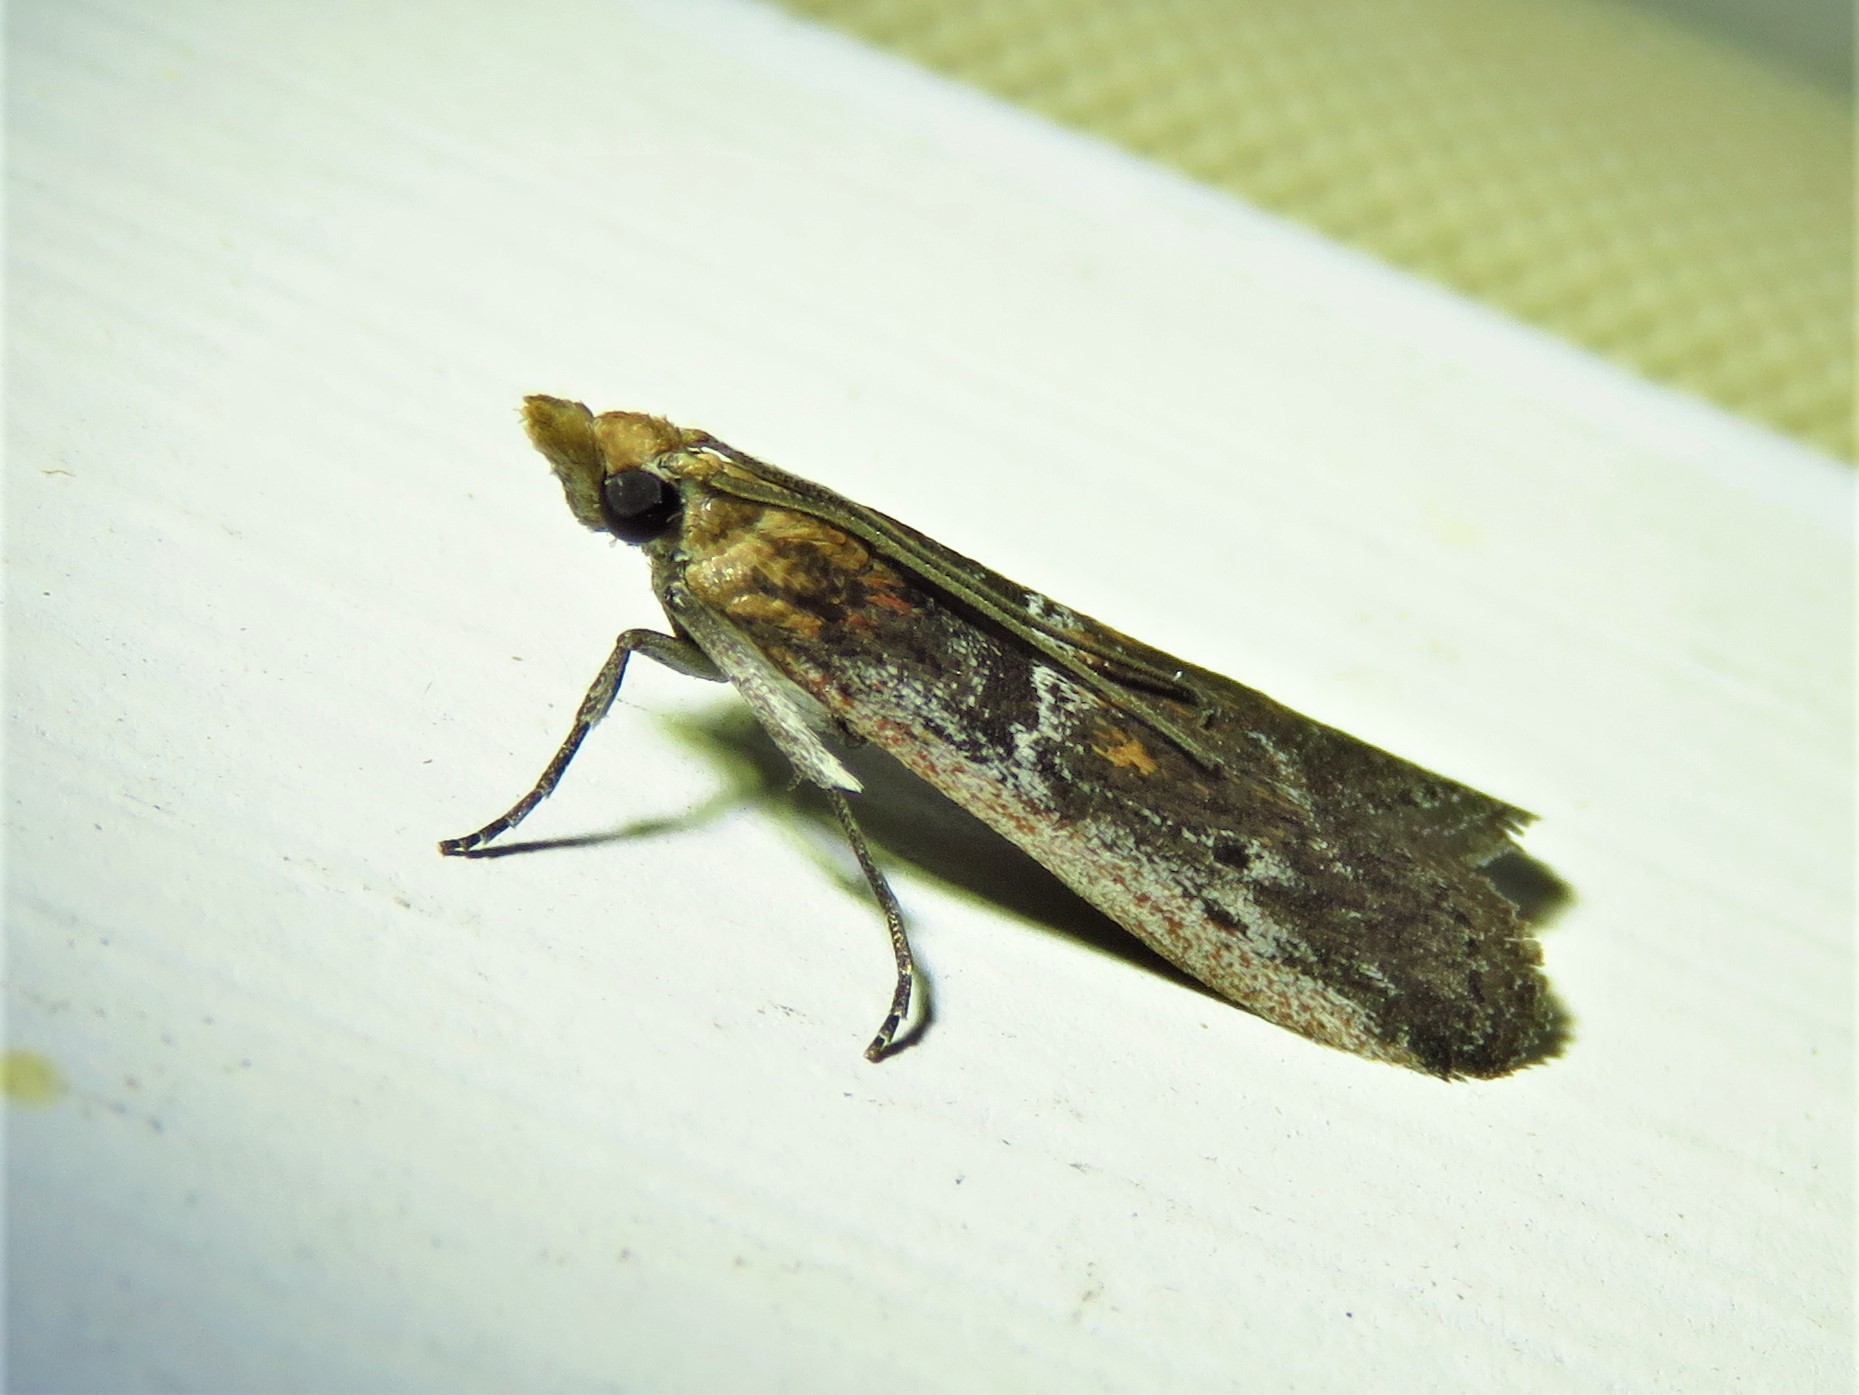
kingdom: Animalia
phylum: Arthropoda
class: Insecta
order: Lepidoptera
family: Pyralidae
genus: Honora
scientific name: Honora mellinella
